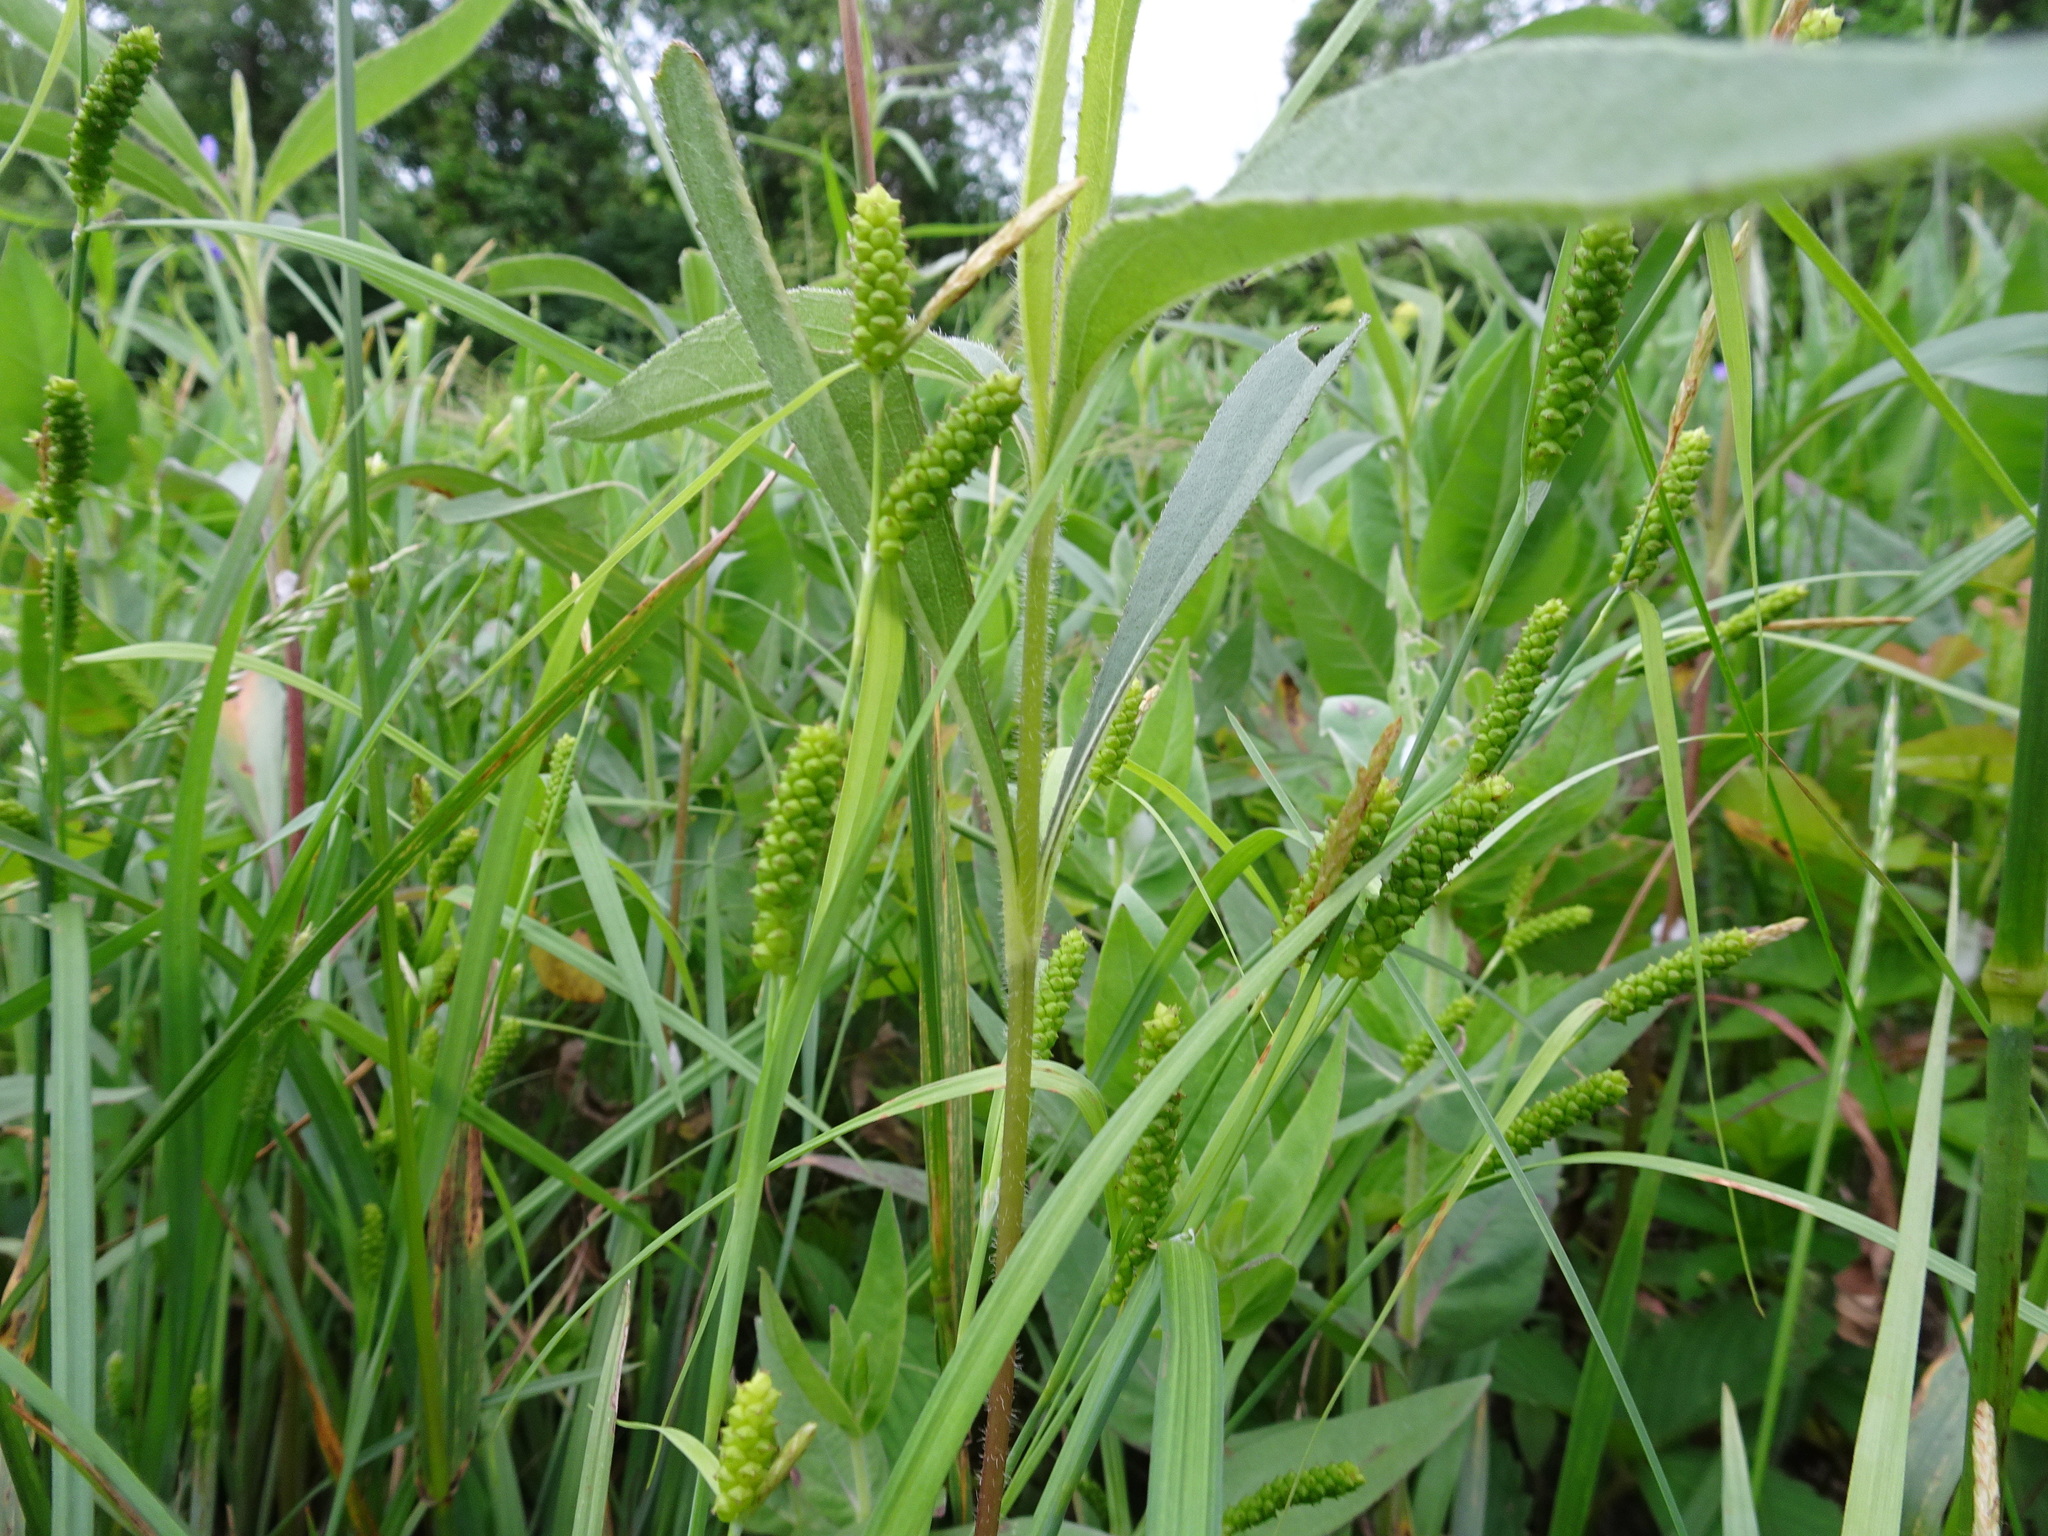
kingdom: Plantae
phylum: Tracheophyta
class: Liliopsida
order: Poales
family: Cyperaceae
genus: Carex
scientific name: Carex granularis
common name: Granular sedge
